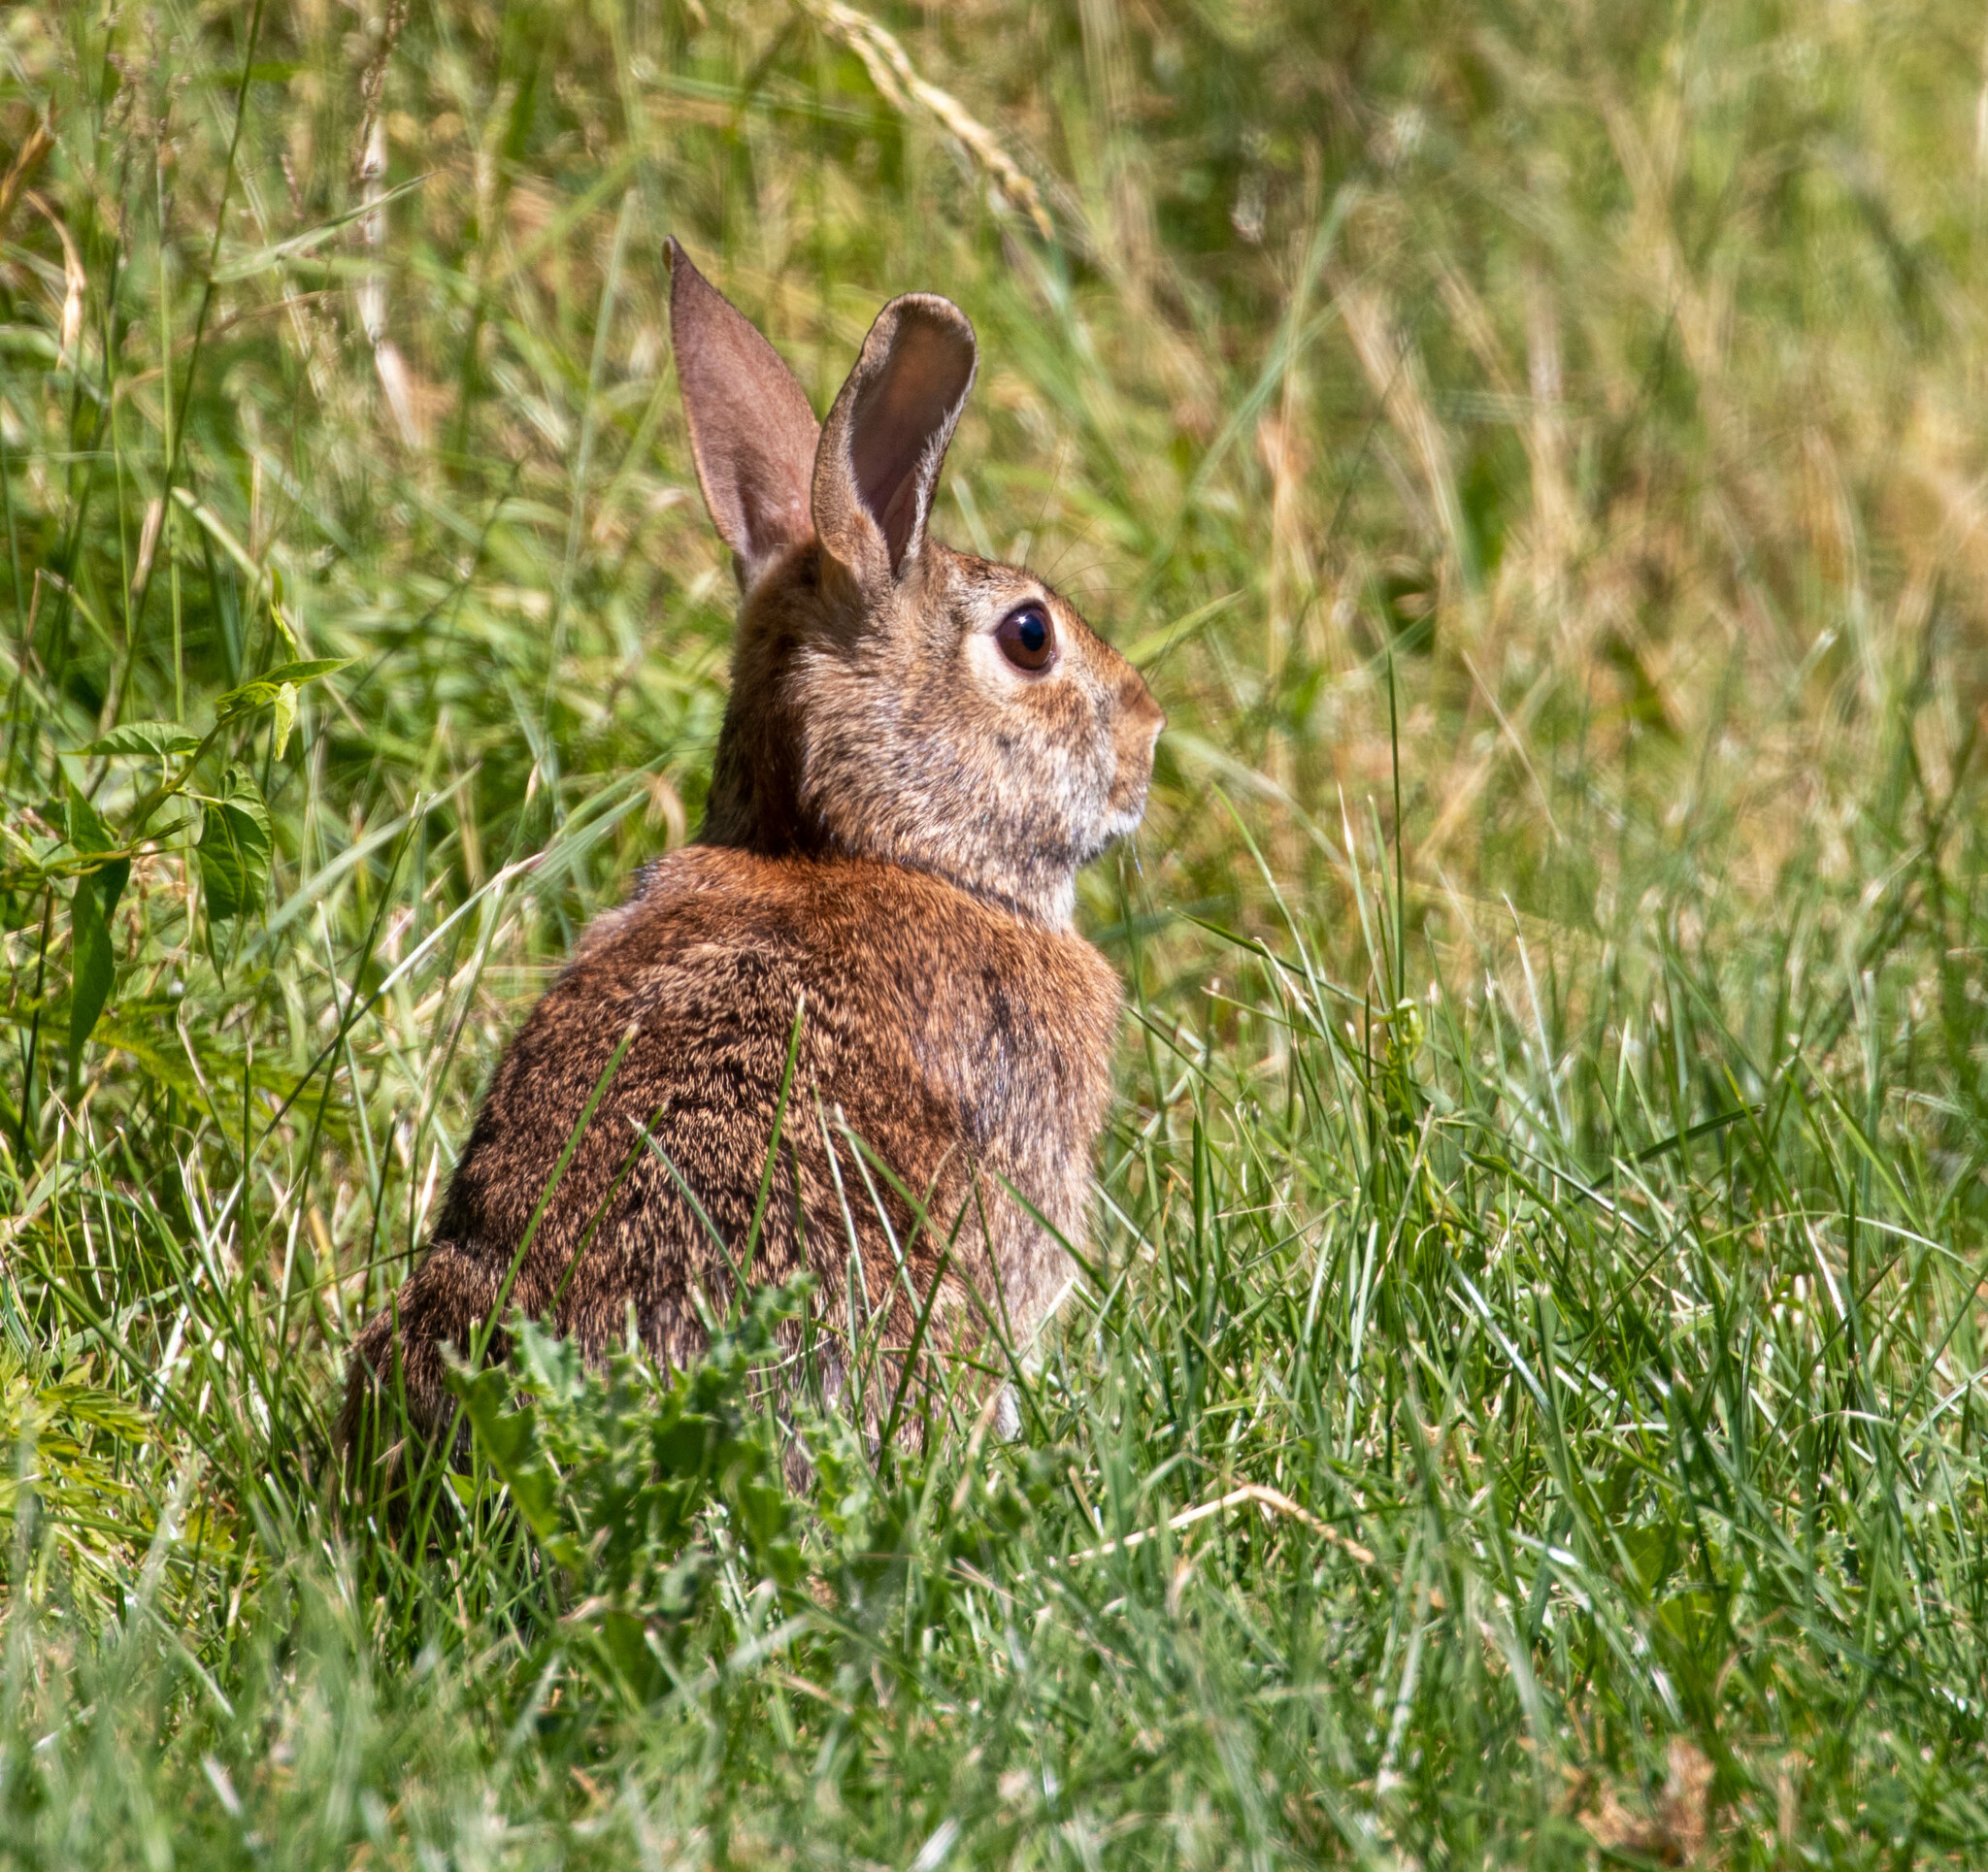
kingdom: Animalia
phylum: Chordata
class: Mammalia
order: Lagomorpha
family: Leporidae
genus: Sylvilagus
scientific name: Sylvilagus floridanus
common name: Eastern cottontail
